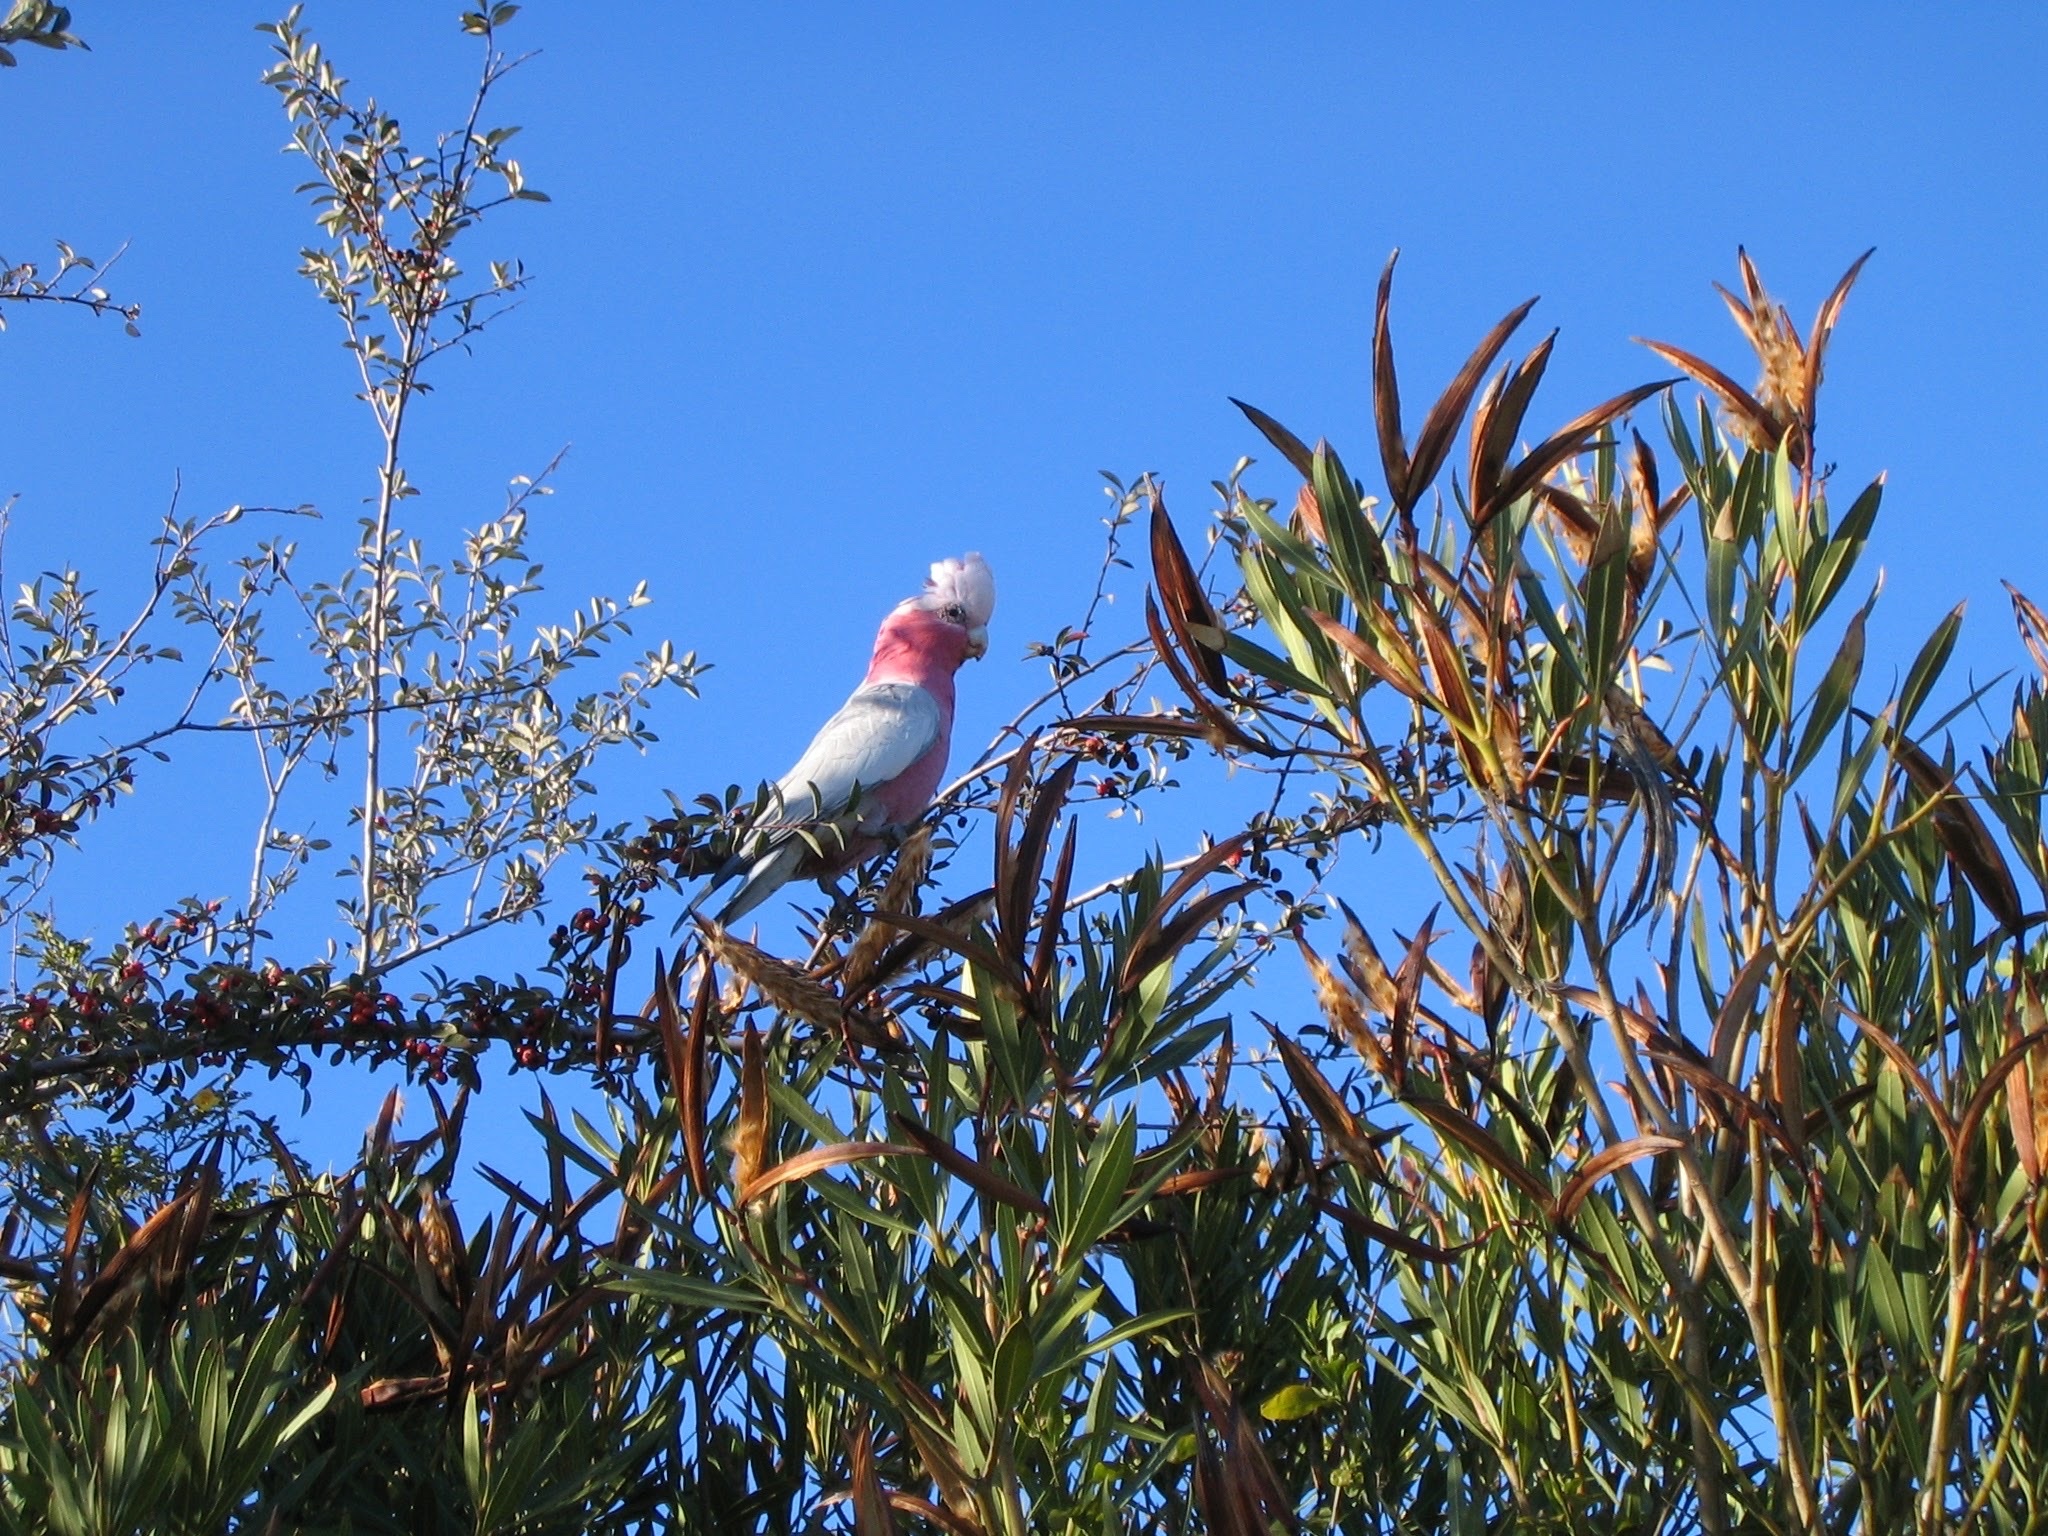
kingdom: Animalia
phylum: Chordata
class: Aves
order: Psittaciformes
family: Psittacidae
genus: Eolophus
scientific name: Eolophus roseicapilla
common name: Galah
